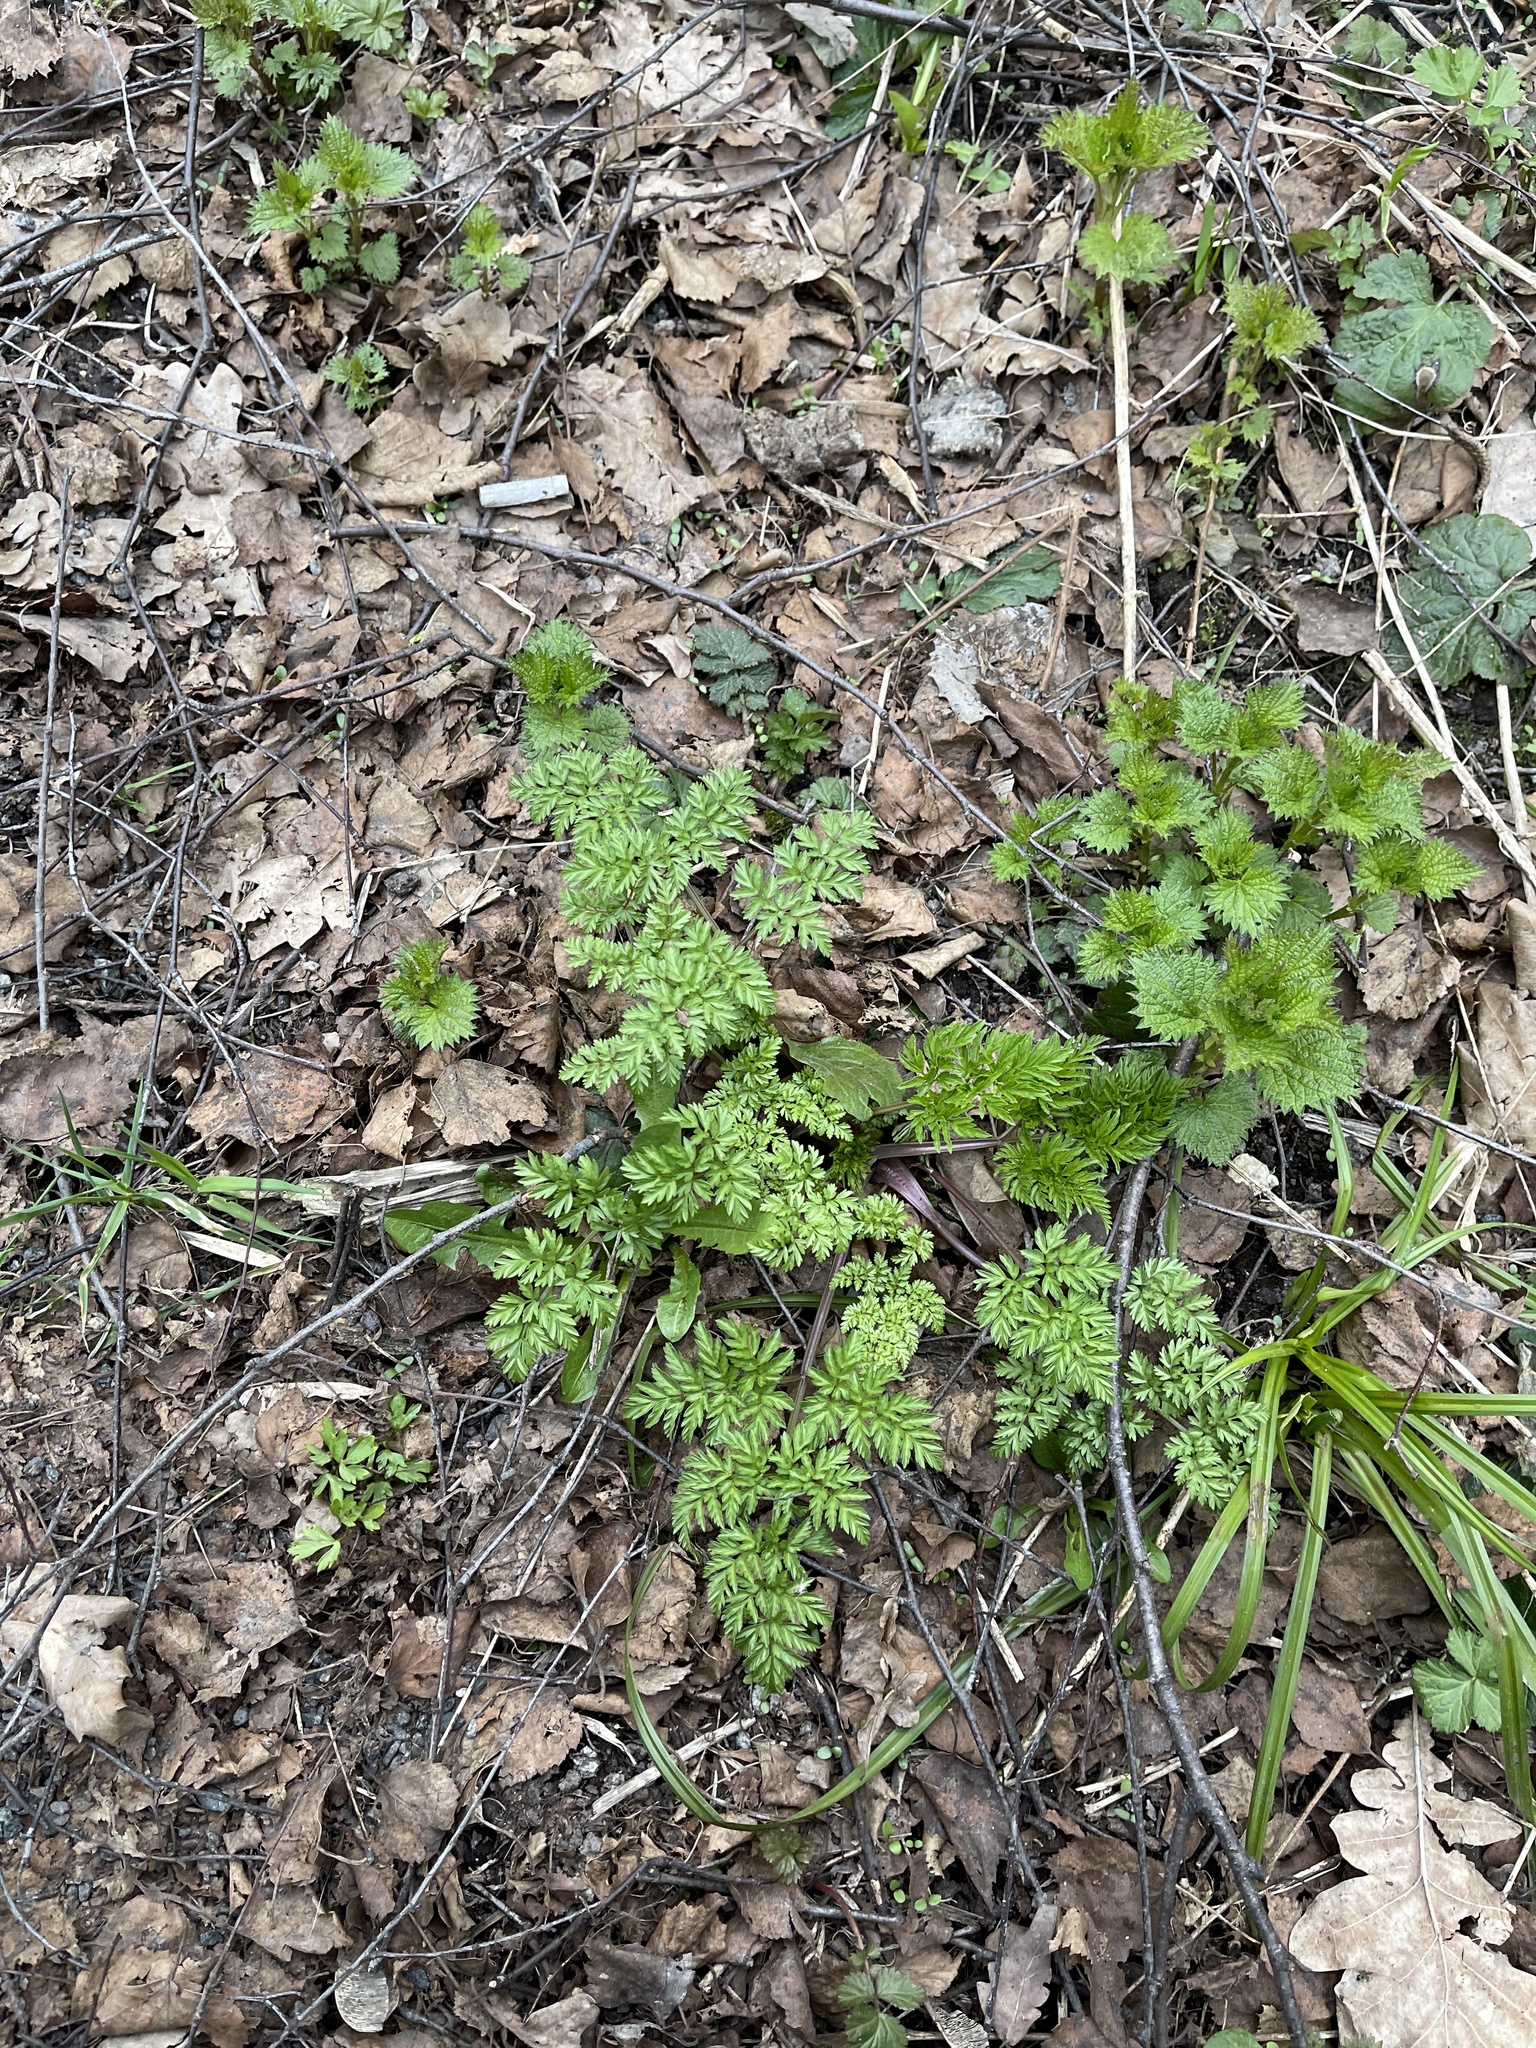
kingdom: Plantae
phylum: Tracheophyta
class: Magnoliopsida
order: Apiales
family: Apiaceae
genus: Anthriscus
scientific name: Anthriscus sylvestris
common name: Cow parsley
